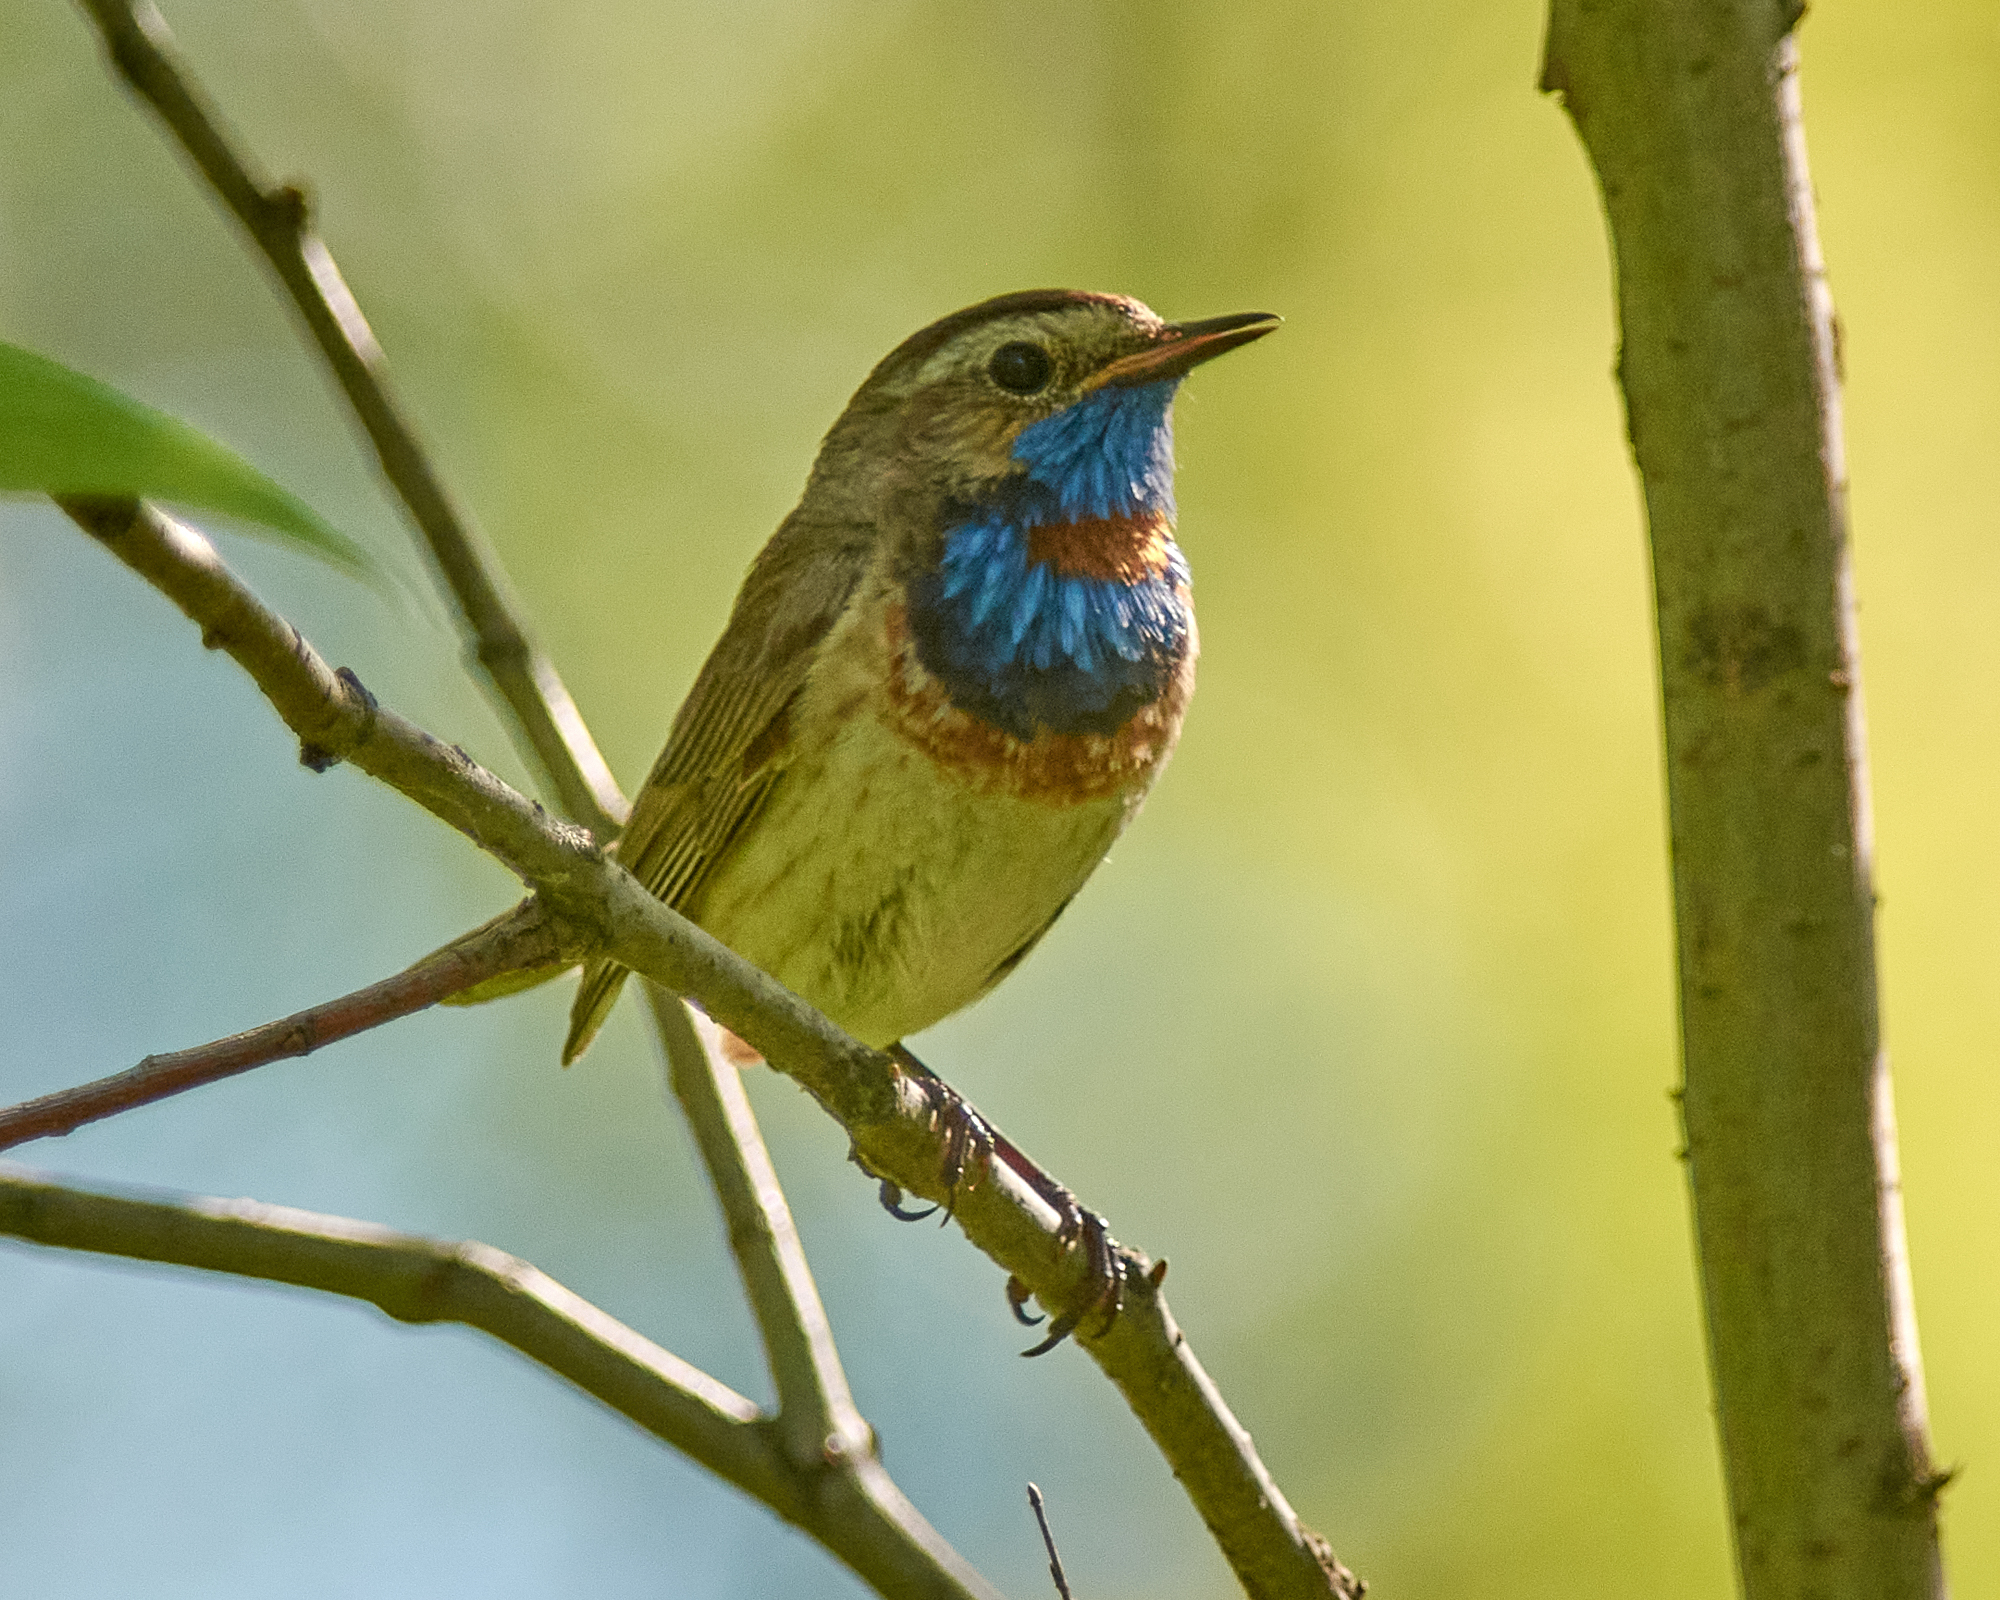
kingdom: Animalia
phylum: Chordata
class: Aves
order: Passeriformes
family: Muscicapidae
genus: Luscinia
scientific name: Luscinia svecica
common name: Bluethroat
